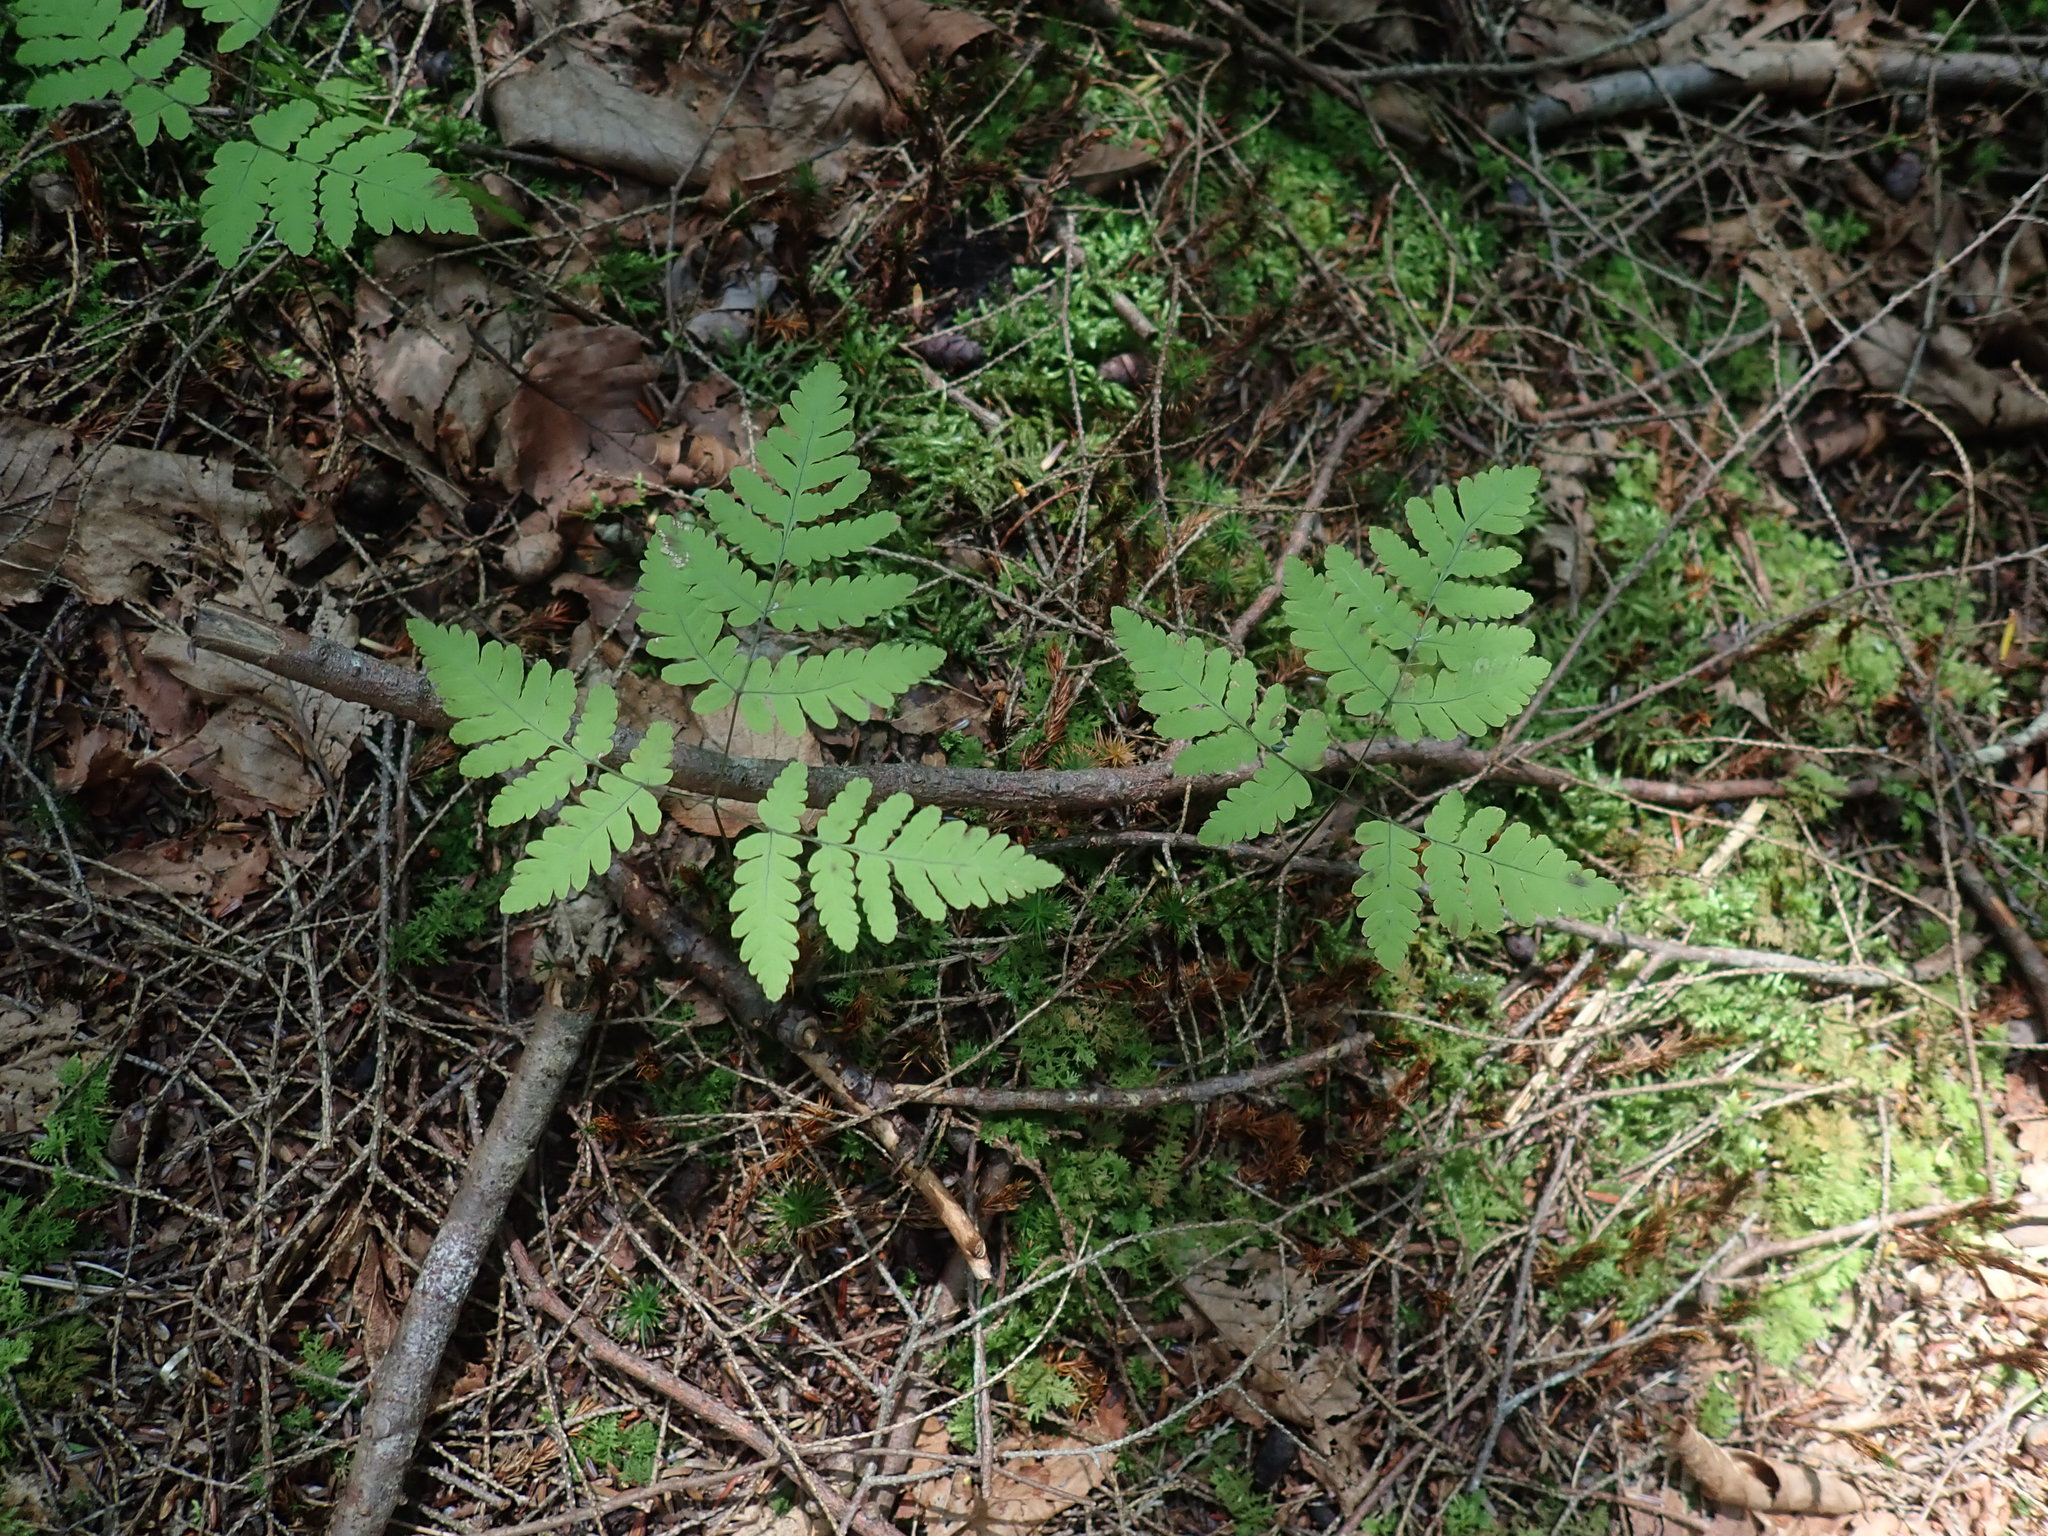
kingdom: Plantae
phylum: Tracheophyta
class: Polypodiopsida
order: Polypodiales
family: Cystopteridaceae
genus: Gymnocarpium
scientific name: Gymnocarpium dryopteris
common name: Oak fern
